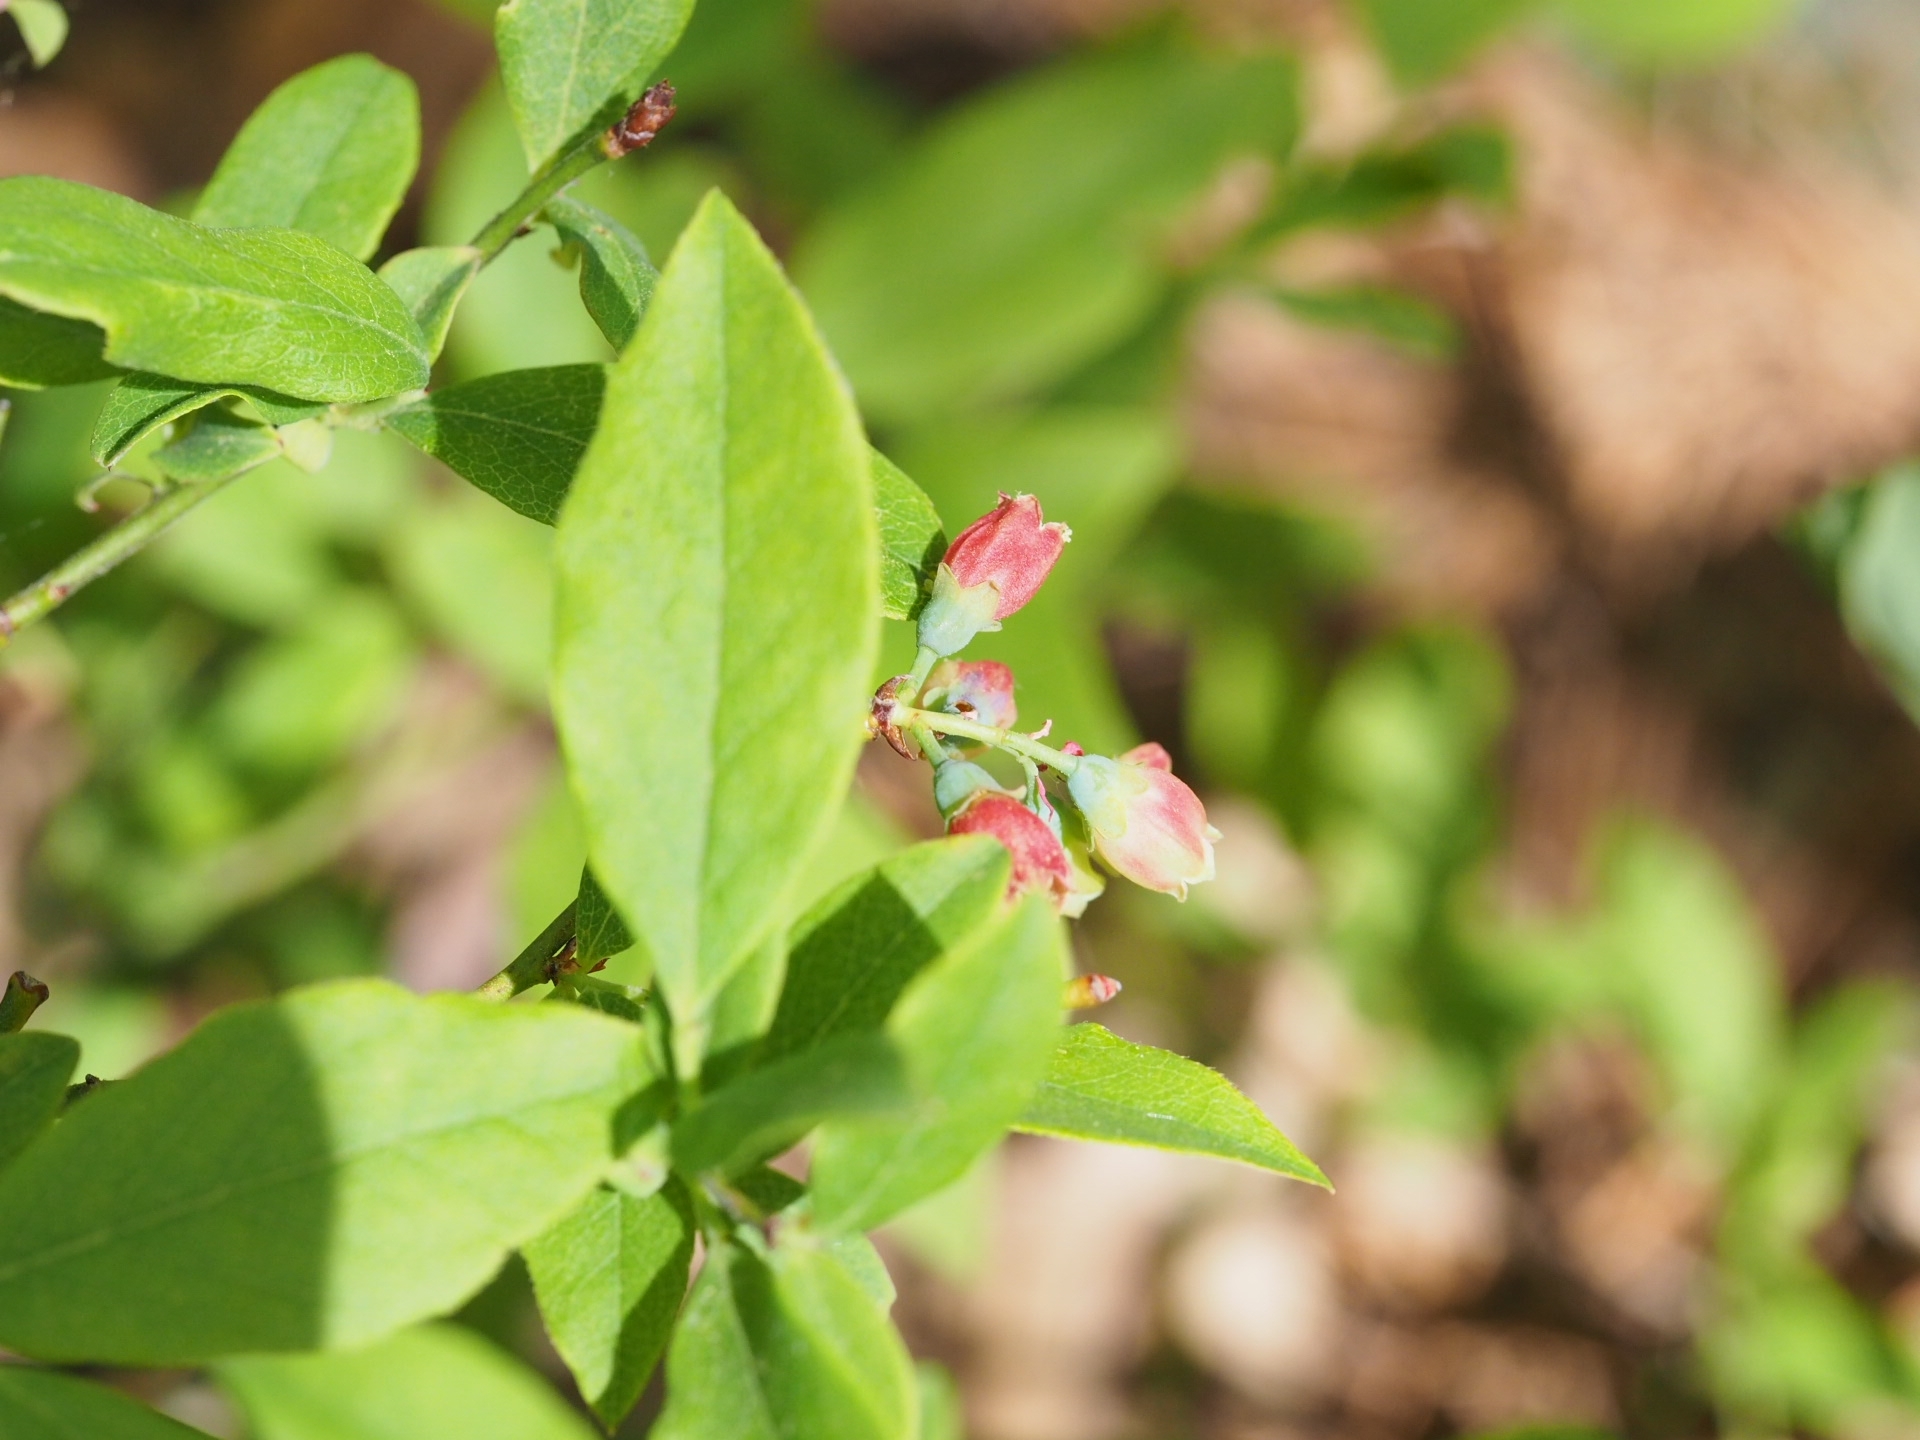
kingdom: Plantae
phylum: Tracheophyta
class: Magnoliopsida
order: Ericales
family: Ericaceae
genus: Gaylussacia
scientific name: Gaylussacia baccata
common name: Black huckleberry
